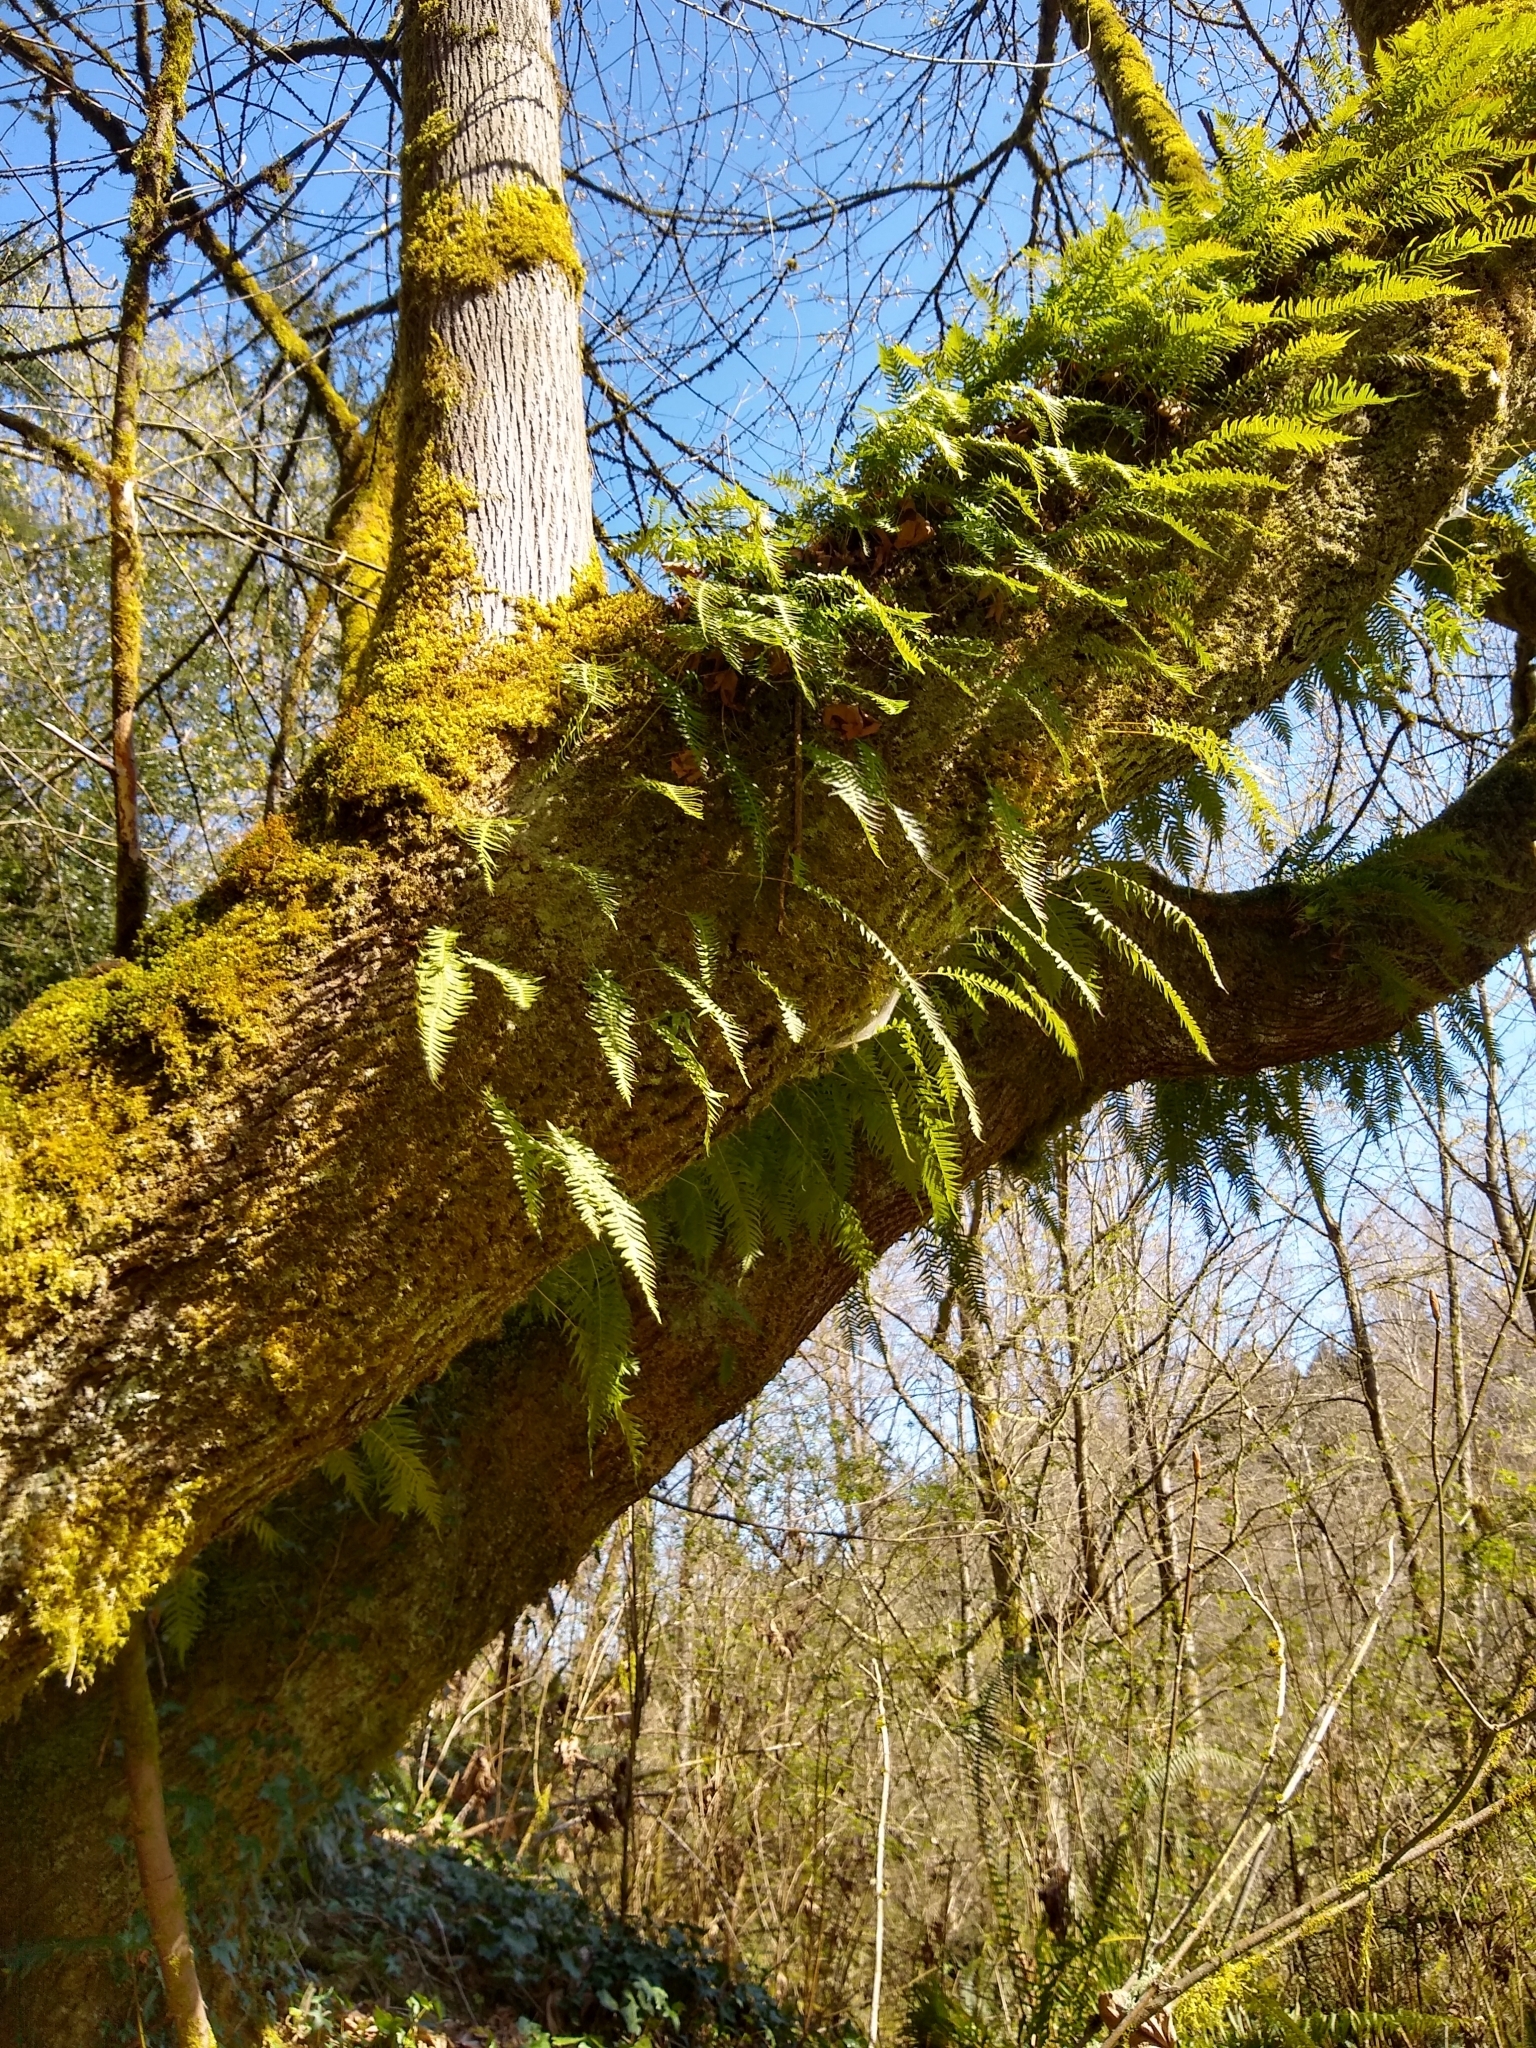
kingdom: Plantae
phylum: Tracheophyta
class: Polypodiopsida
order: Polypodiales
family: Polypodiaceae
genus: Polypodium
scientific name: Polypodium glycyrrhiza
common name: Licorice fern
